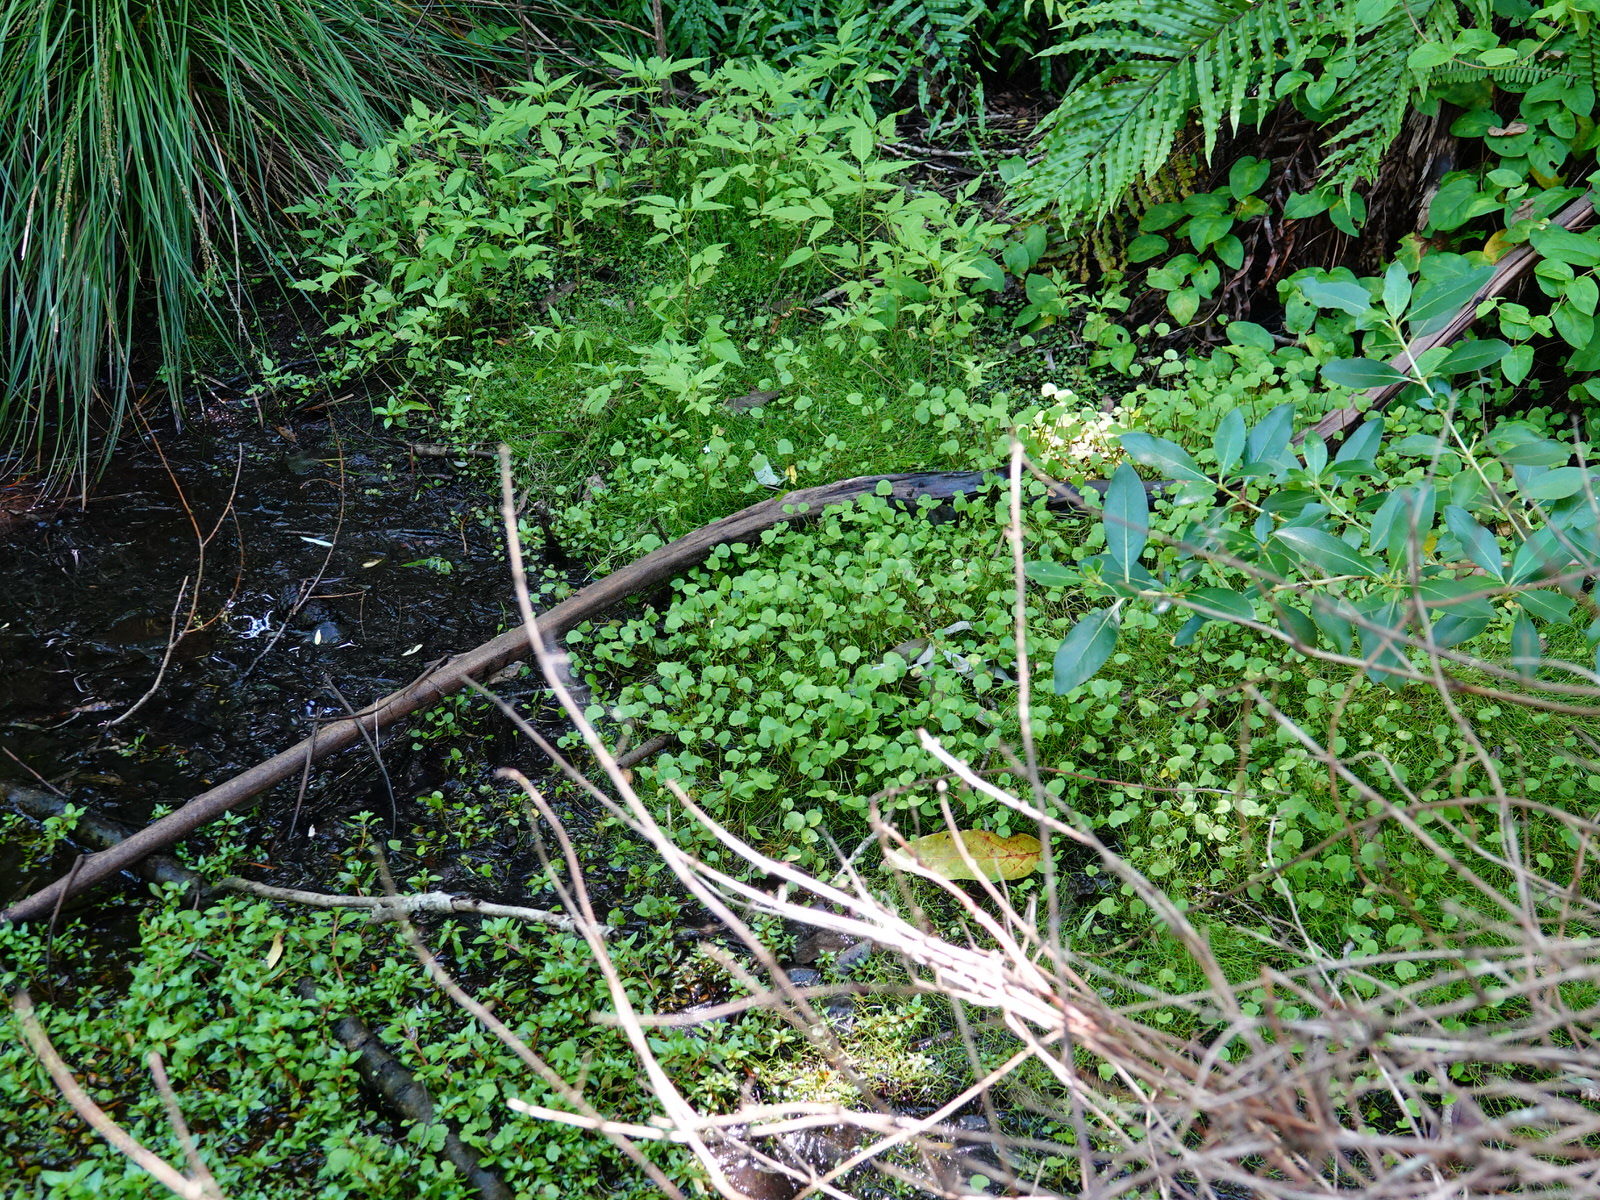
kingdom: Plantae
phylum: Tracheophyta
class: Magnoliopsida
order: Apiales
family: Apiaceae
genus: Centella
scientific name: Centella uniflora
